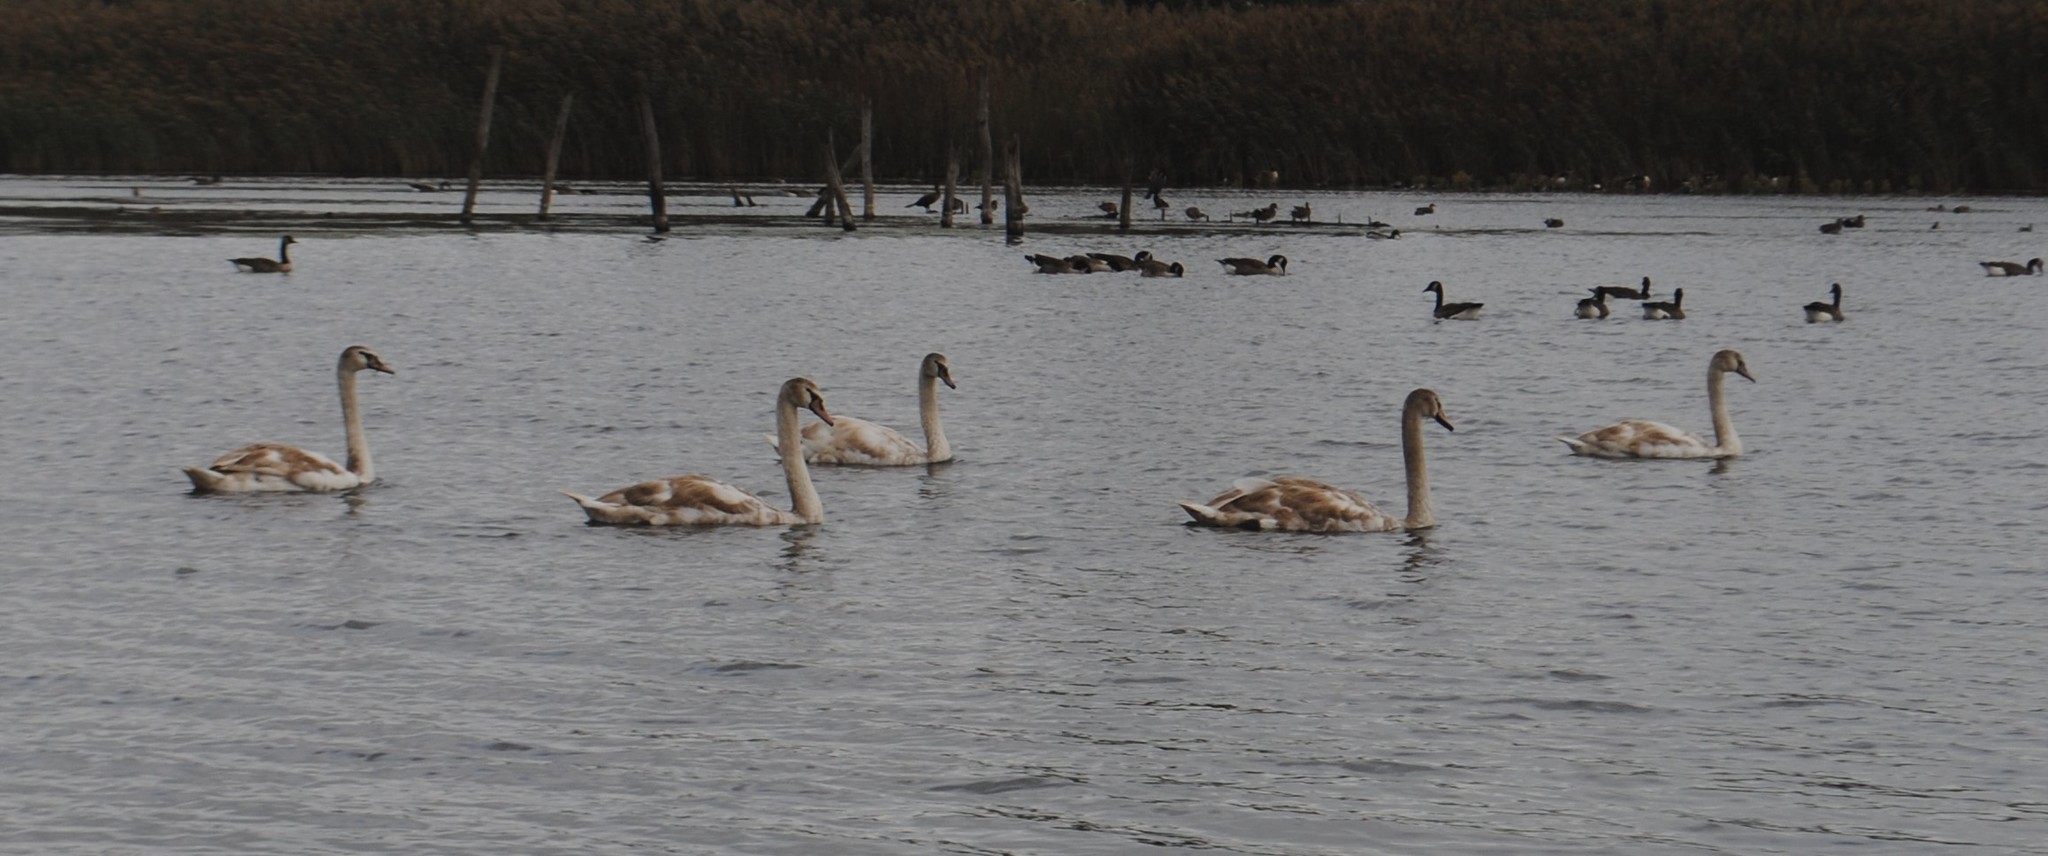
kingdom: Animalia
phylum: Chordata
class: Aves
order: Anseriformes
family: Anatidae
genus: Cygnus
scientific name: Cygnus olor
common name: Mute swan
